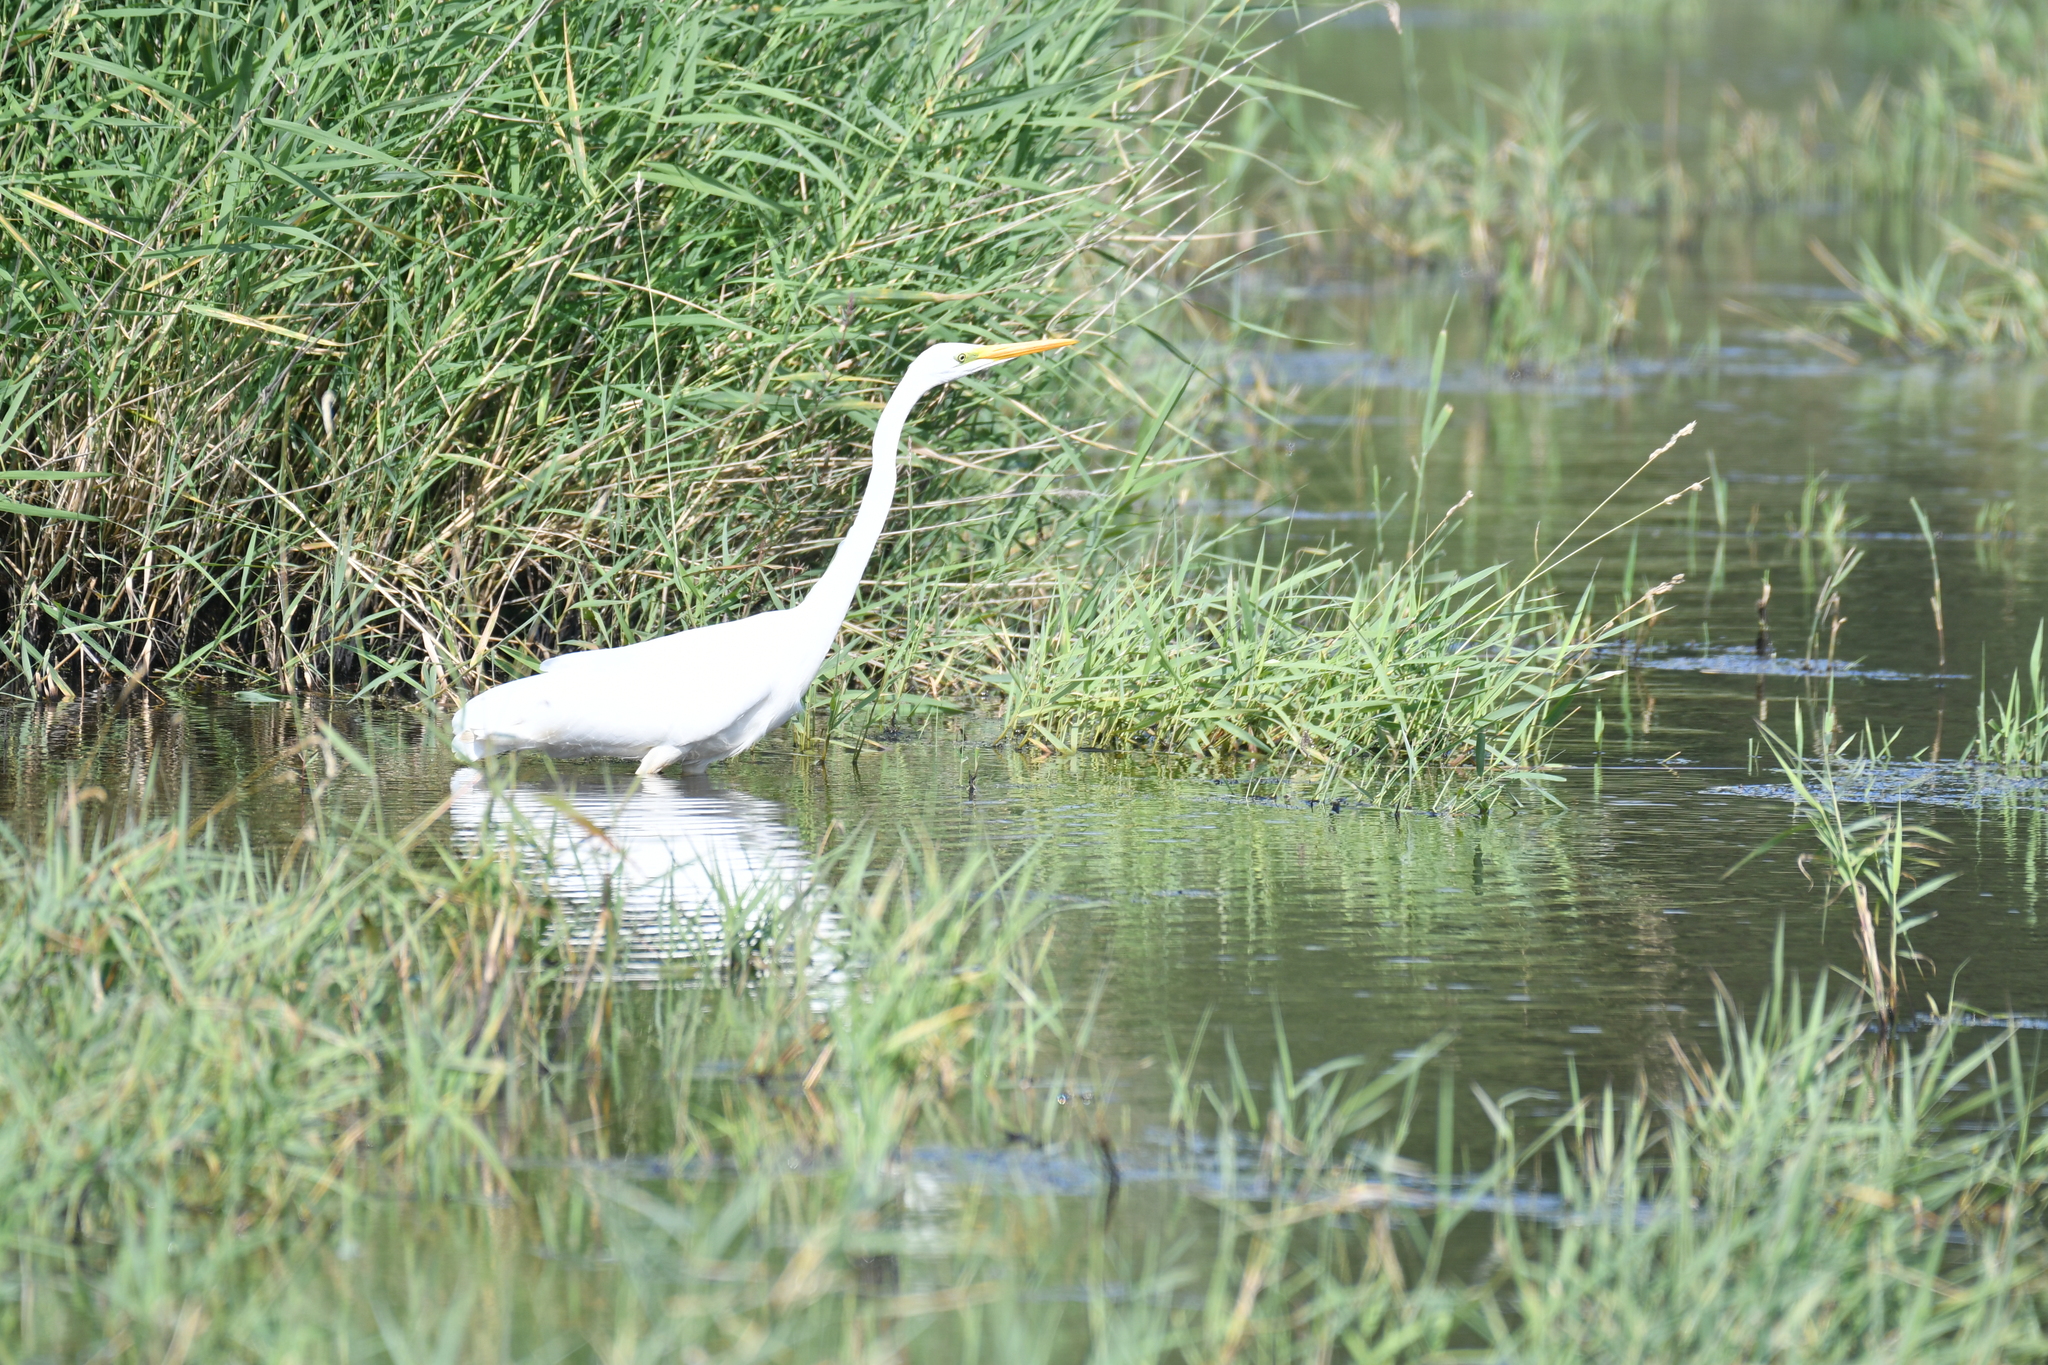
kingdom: Animalia
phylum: Chordata
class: Aves
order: Pelecaniformes
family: Ardeidae
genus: Ardea
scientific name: Ardea alba
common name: Great egret
